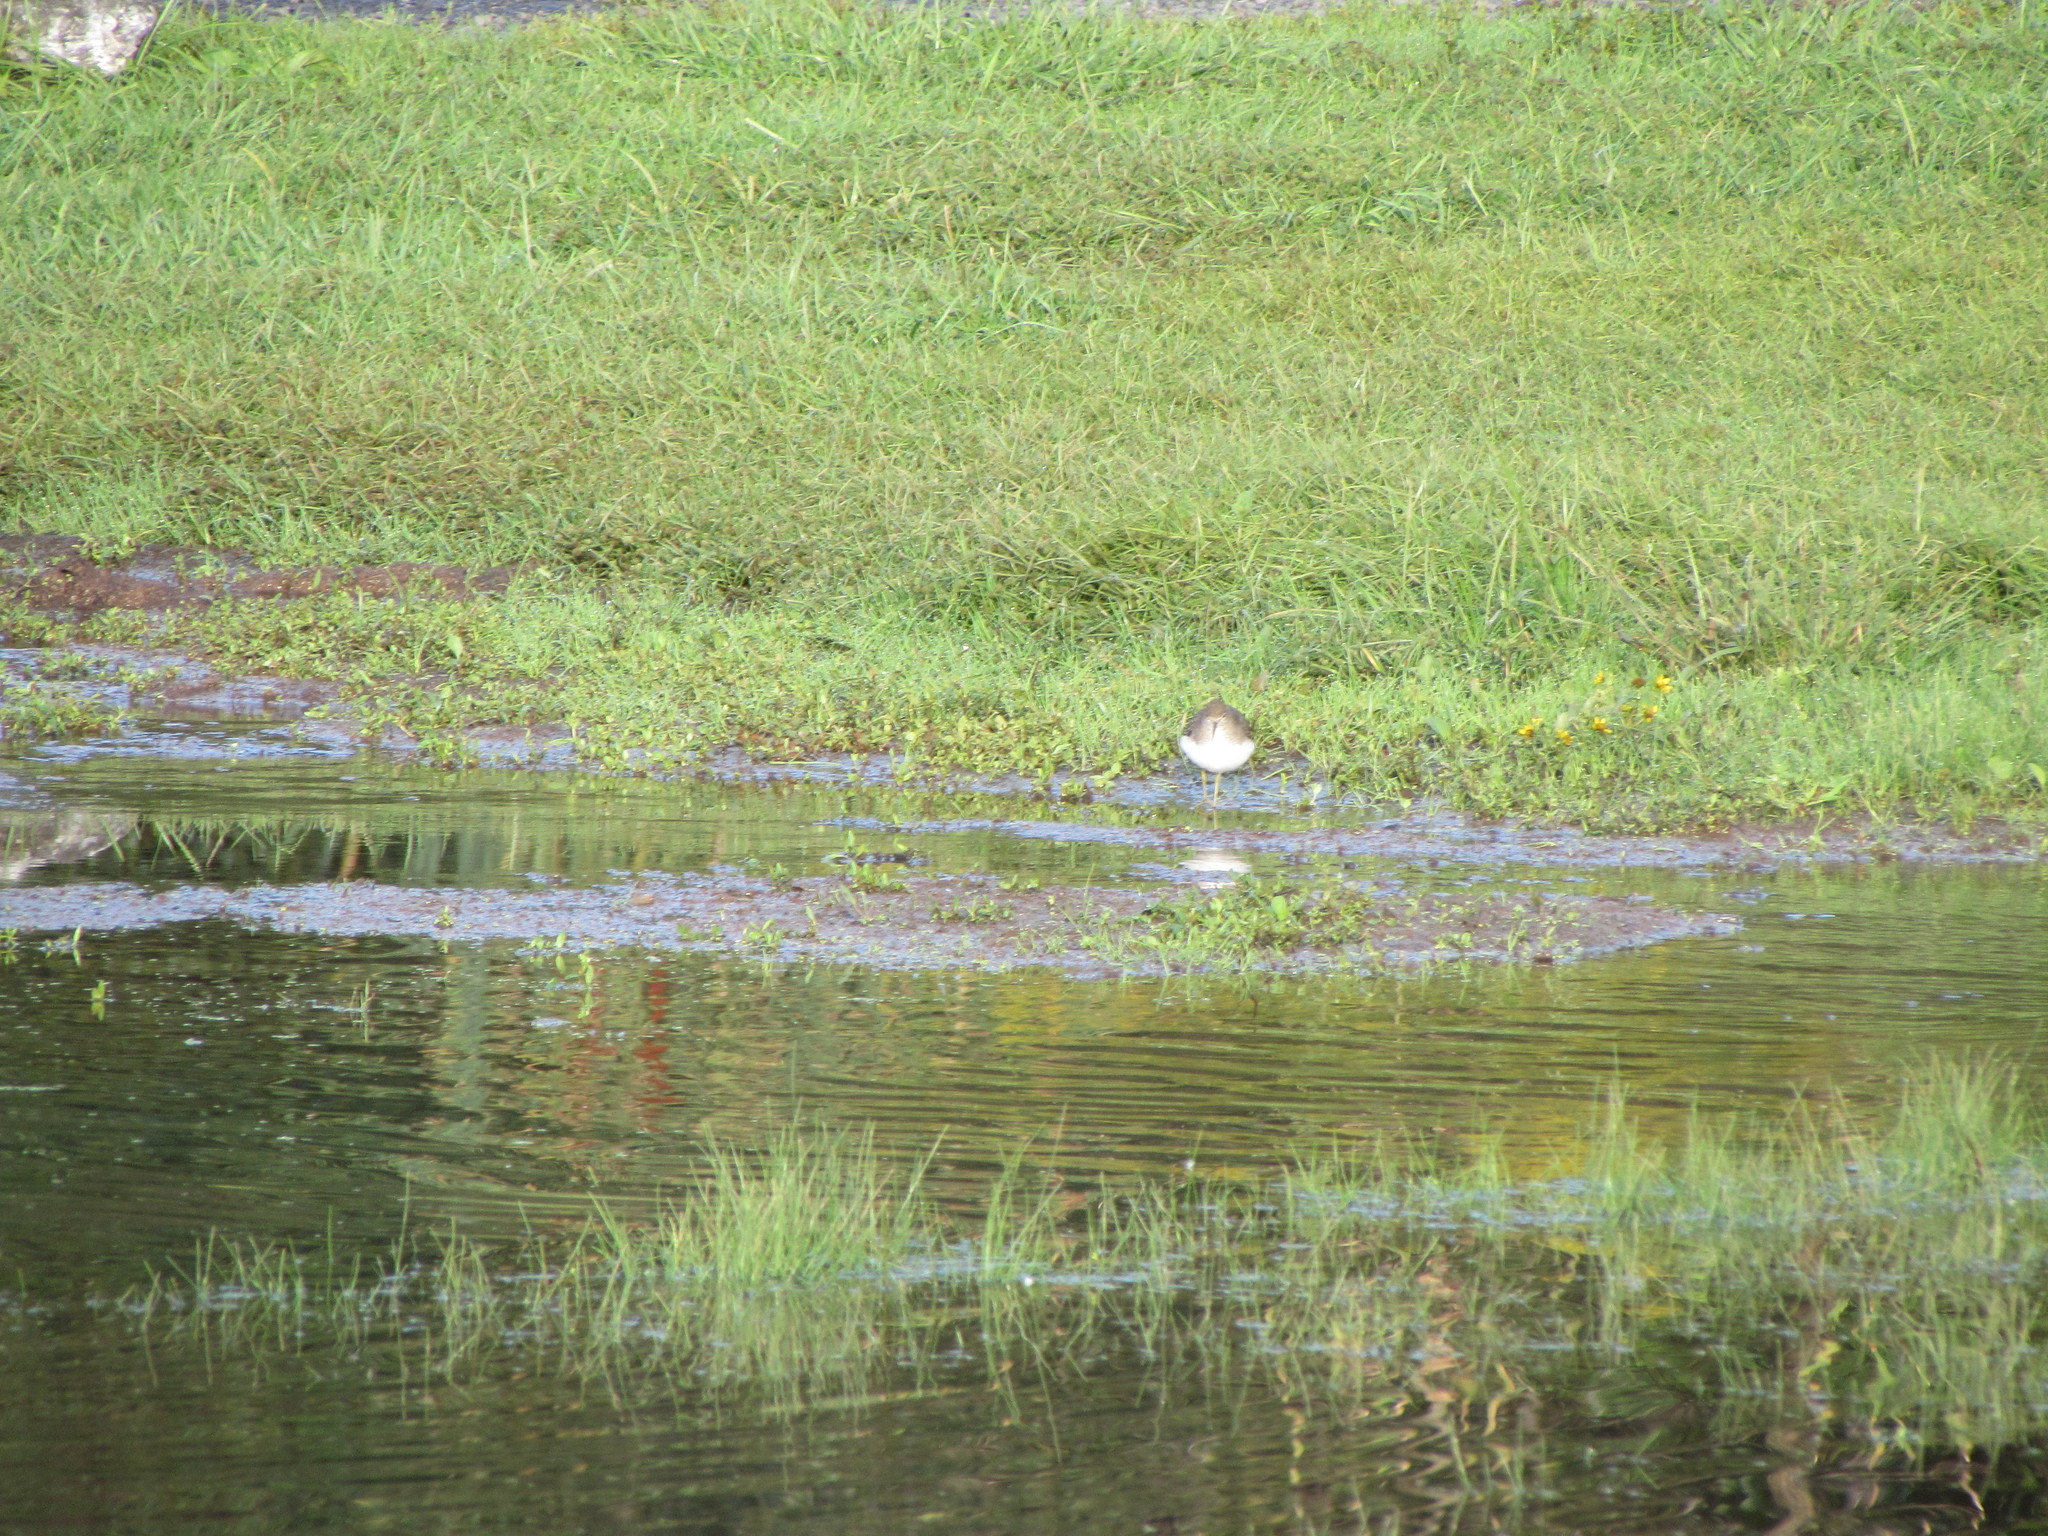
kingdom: Animalia
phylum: Chordata
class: Aves
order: Charadriiformes
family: Scolopacidae
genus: Tringa
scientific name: Tringa solitaria
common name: Solitary sandpiper
